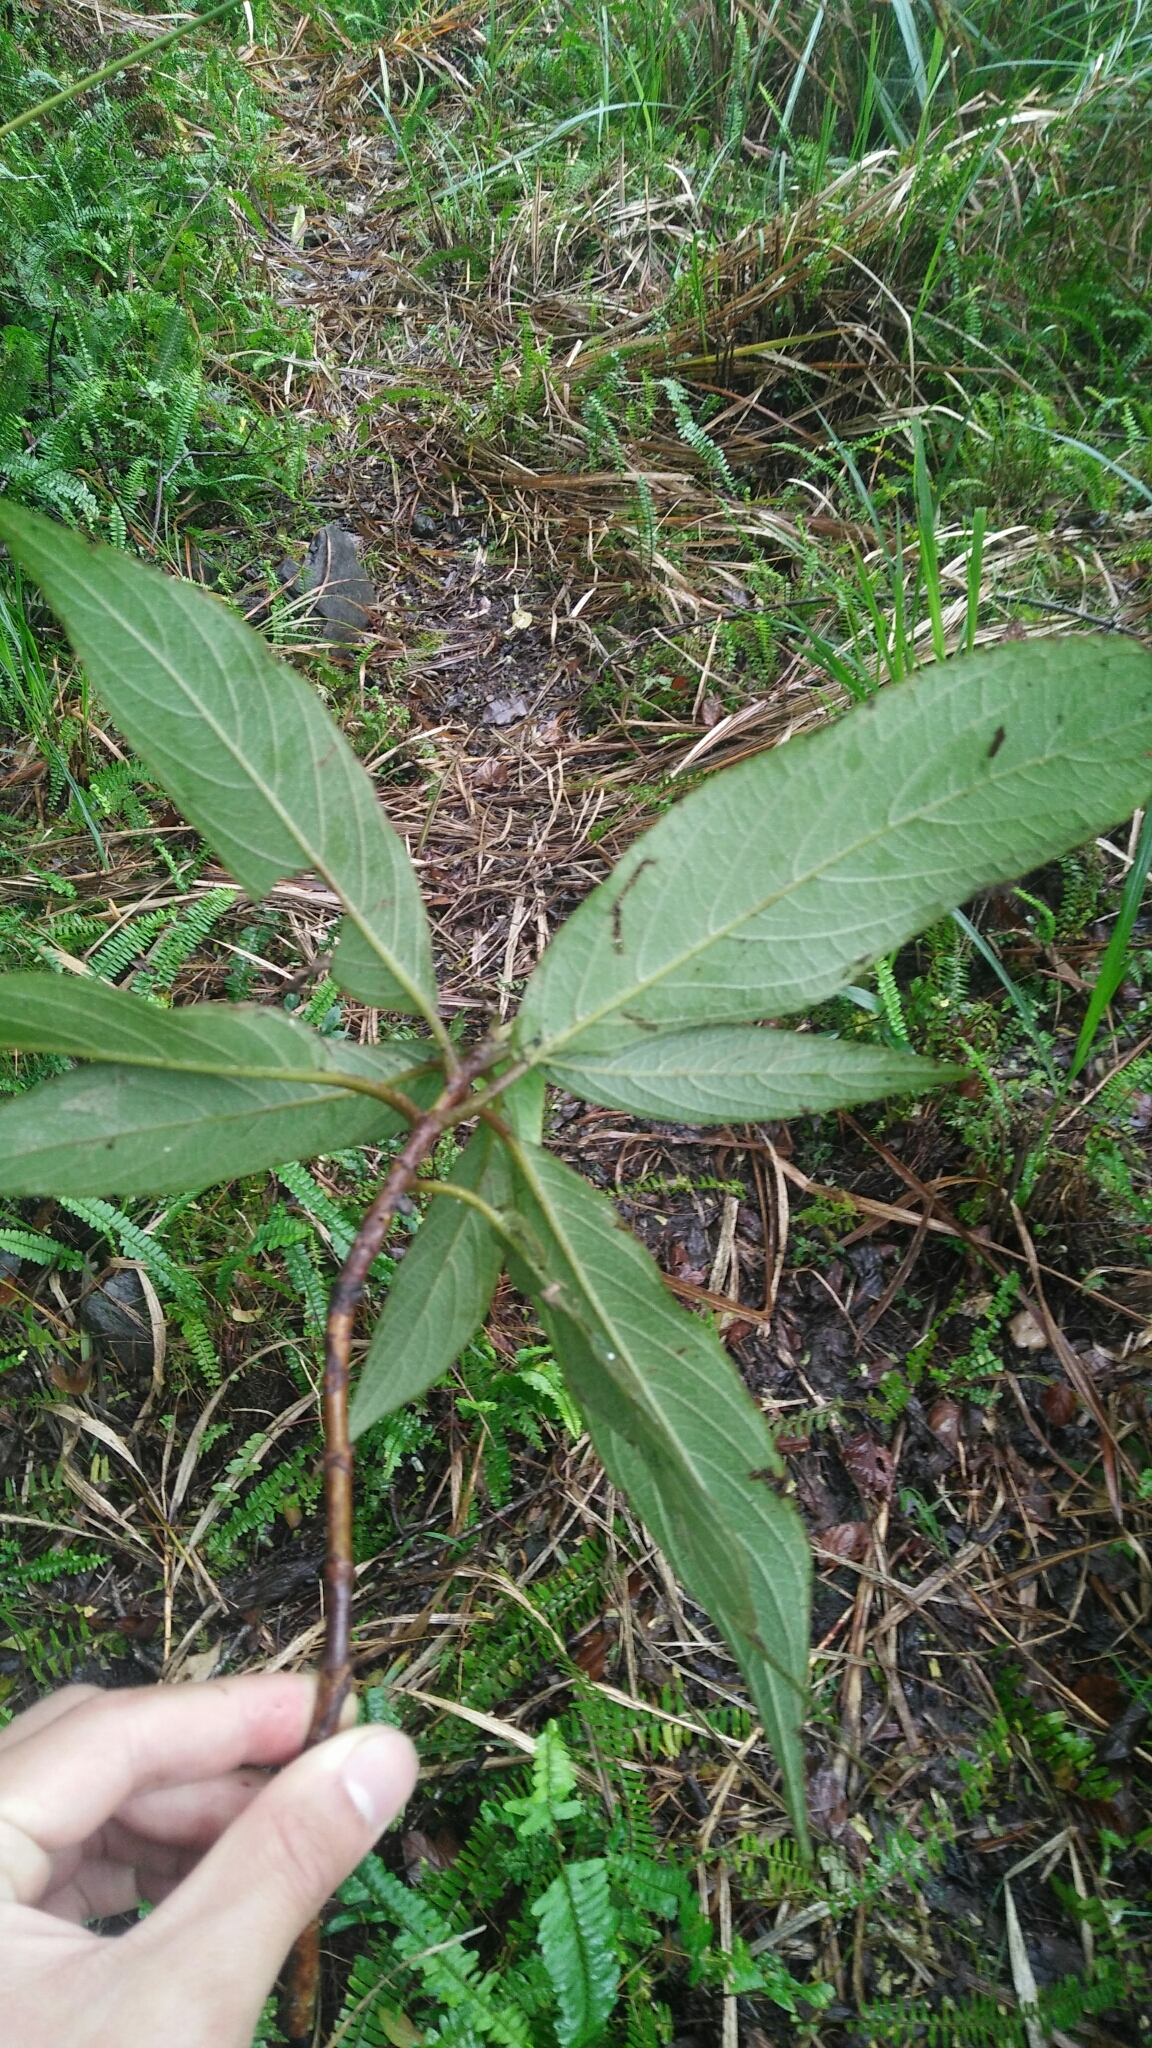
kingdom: Plantae
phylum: Tracheophyta
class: Magnoliopsida
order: Cornales
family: Hydrangeaceae
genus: Hydrangea
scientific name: Hydrangea longifolia
